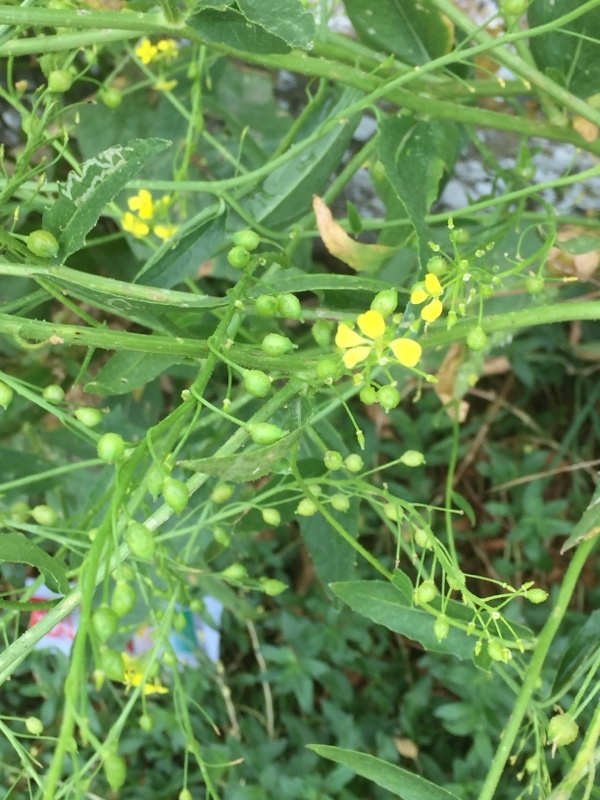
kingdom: Plantae
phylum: Tracheophyta
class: Magnoliopsida
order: Brassicales
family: Brassicaceae
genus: Bunias
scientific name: Bunias orientalis
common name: Warty-cabbage
